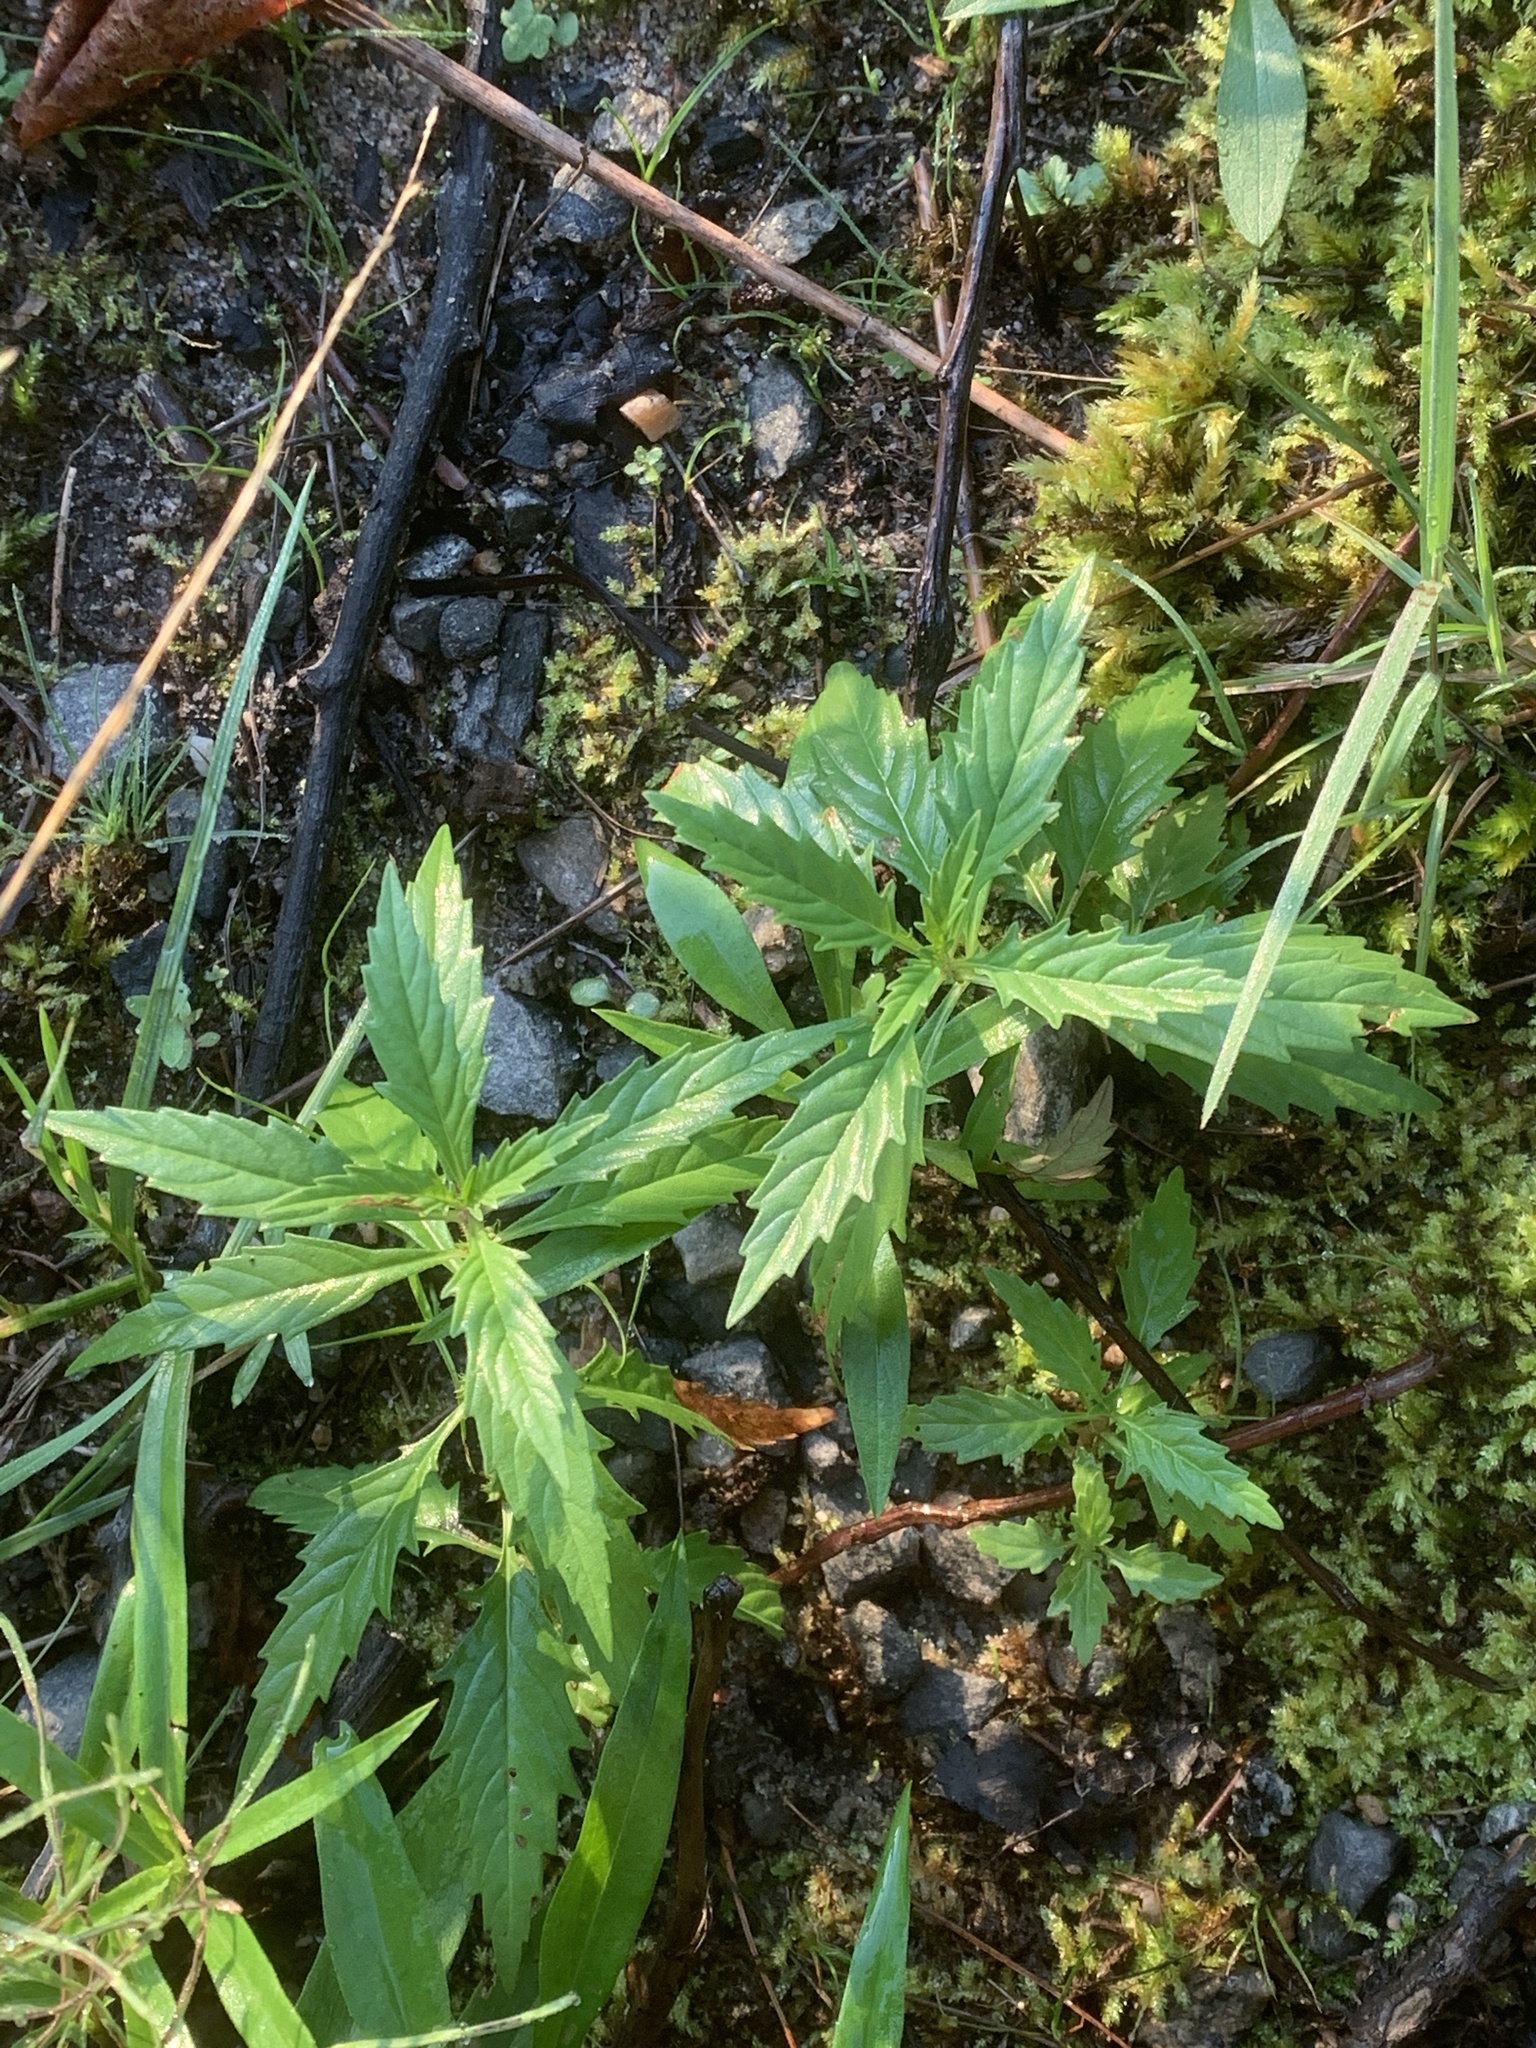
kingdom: Plantae
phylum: Tracheophyta
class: Magnoliopsida
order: Lamiales
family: Lamiaceae
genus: Lycopus
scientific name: Lycopus uniflorus
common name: Northern bugleweed
